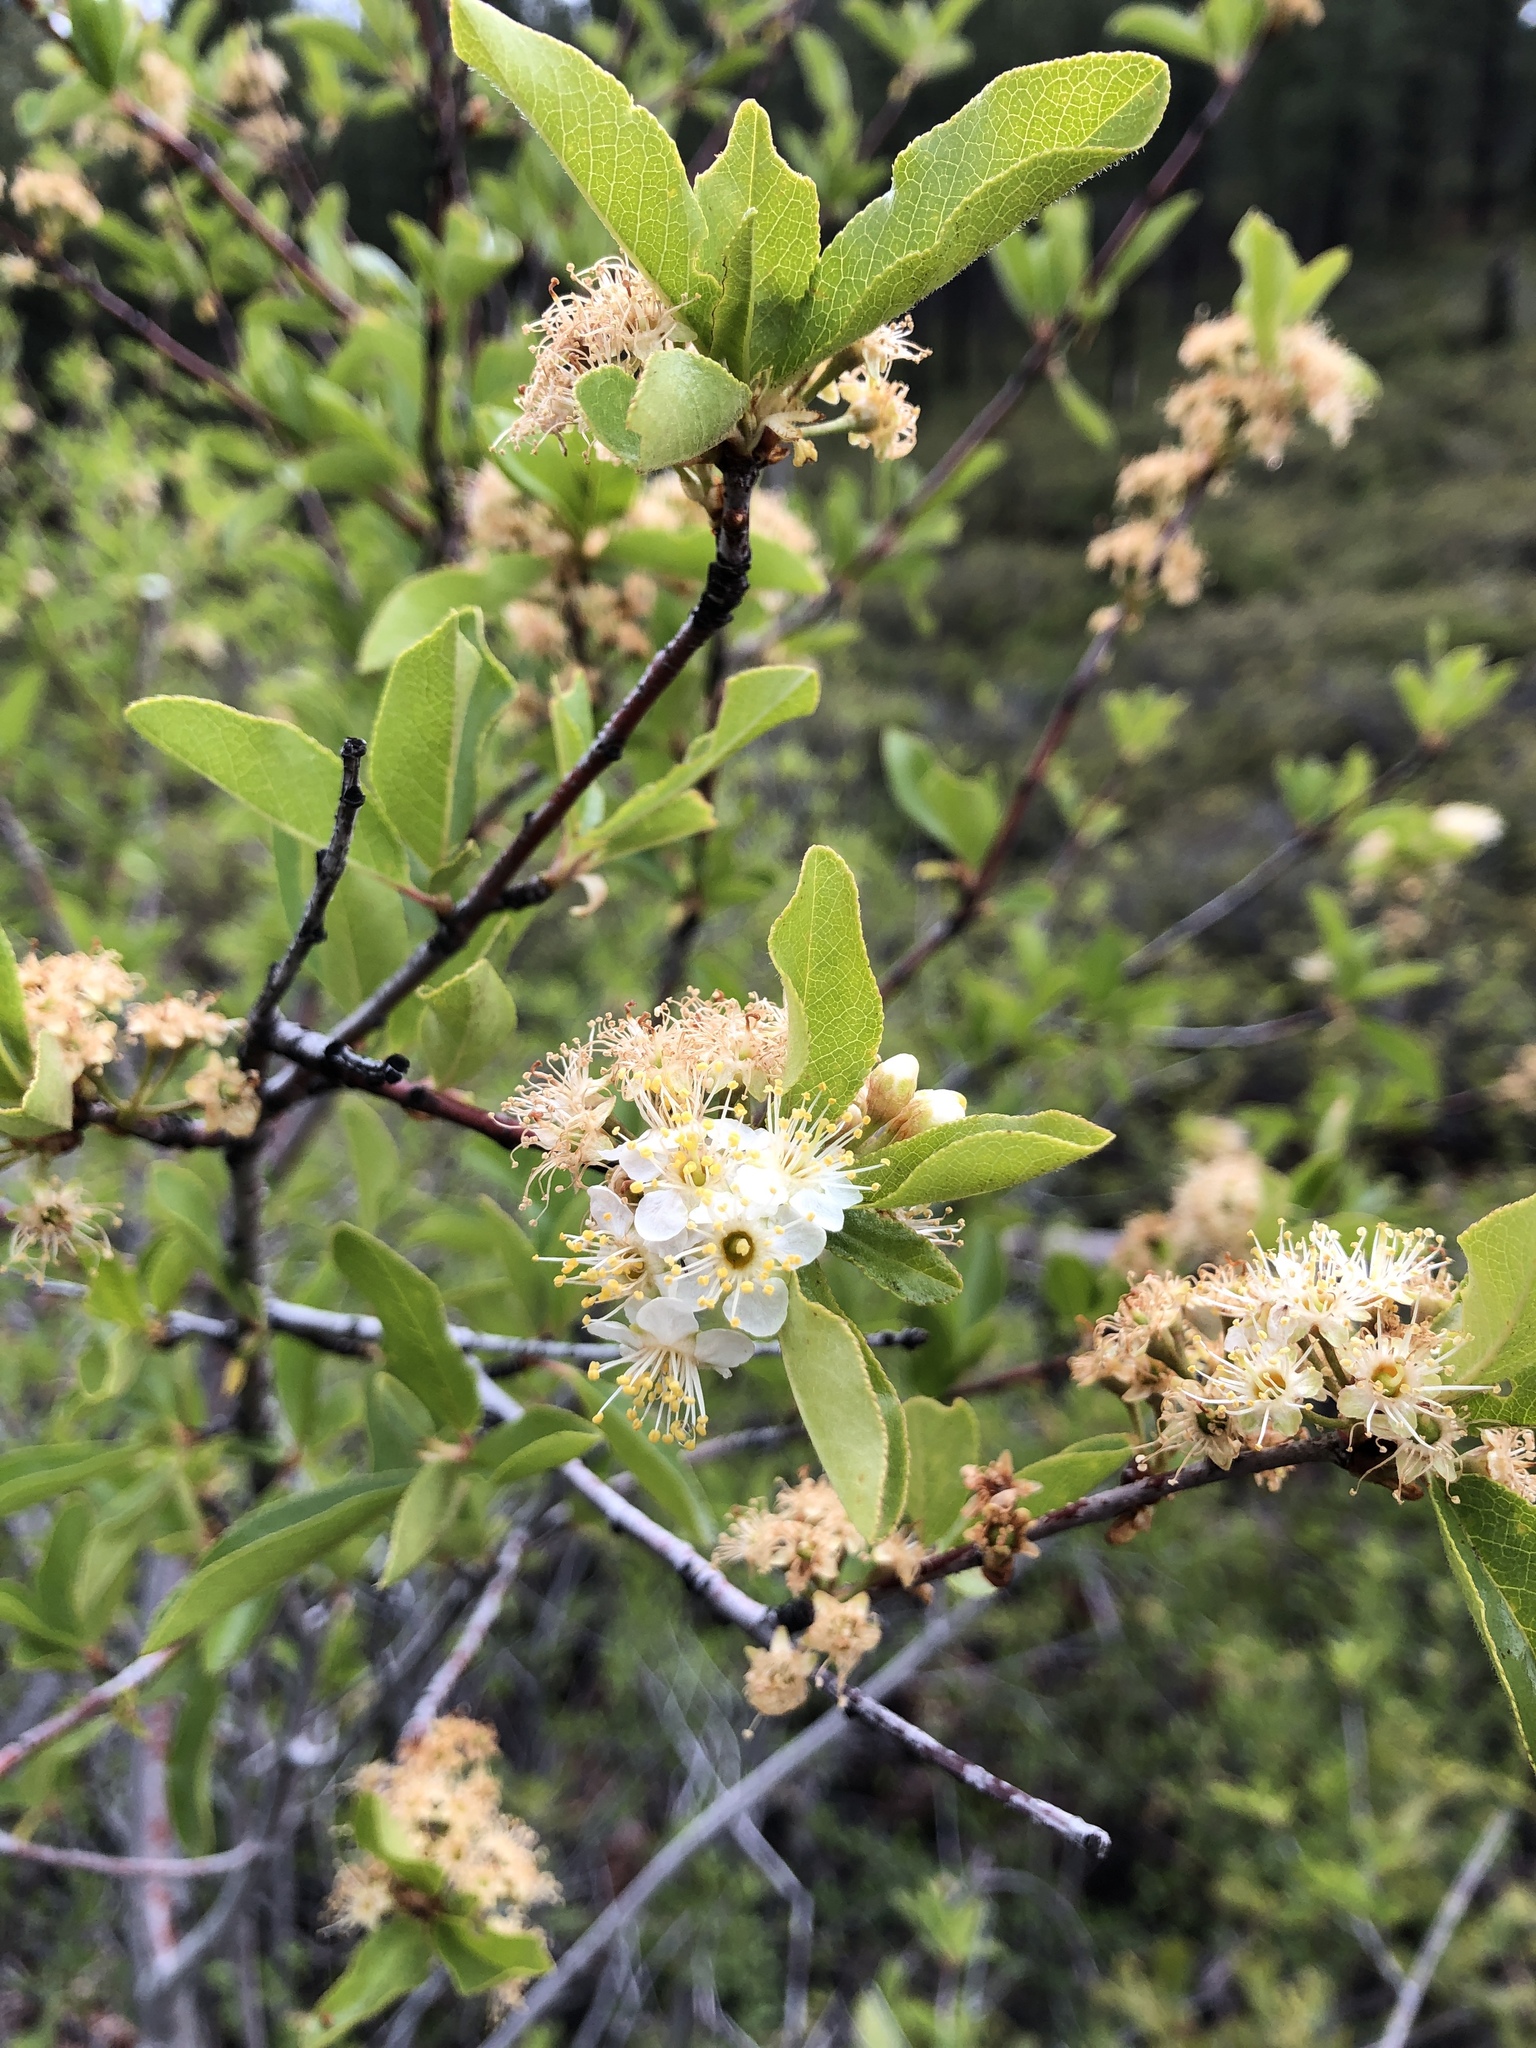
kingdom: Plantae
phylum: Tracheophyta
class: Magnoliopsida
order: Rosales
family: Rosaceae
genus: Prunus
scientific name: Prunus emarginata
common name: Bitter cherry
